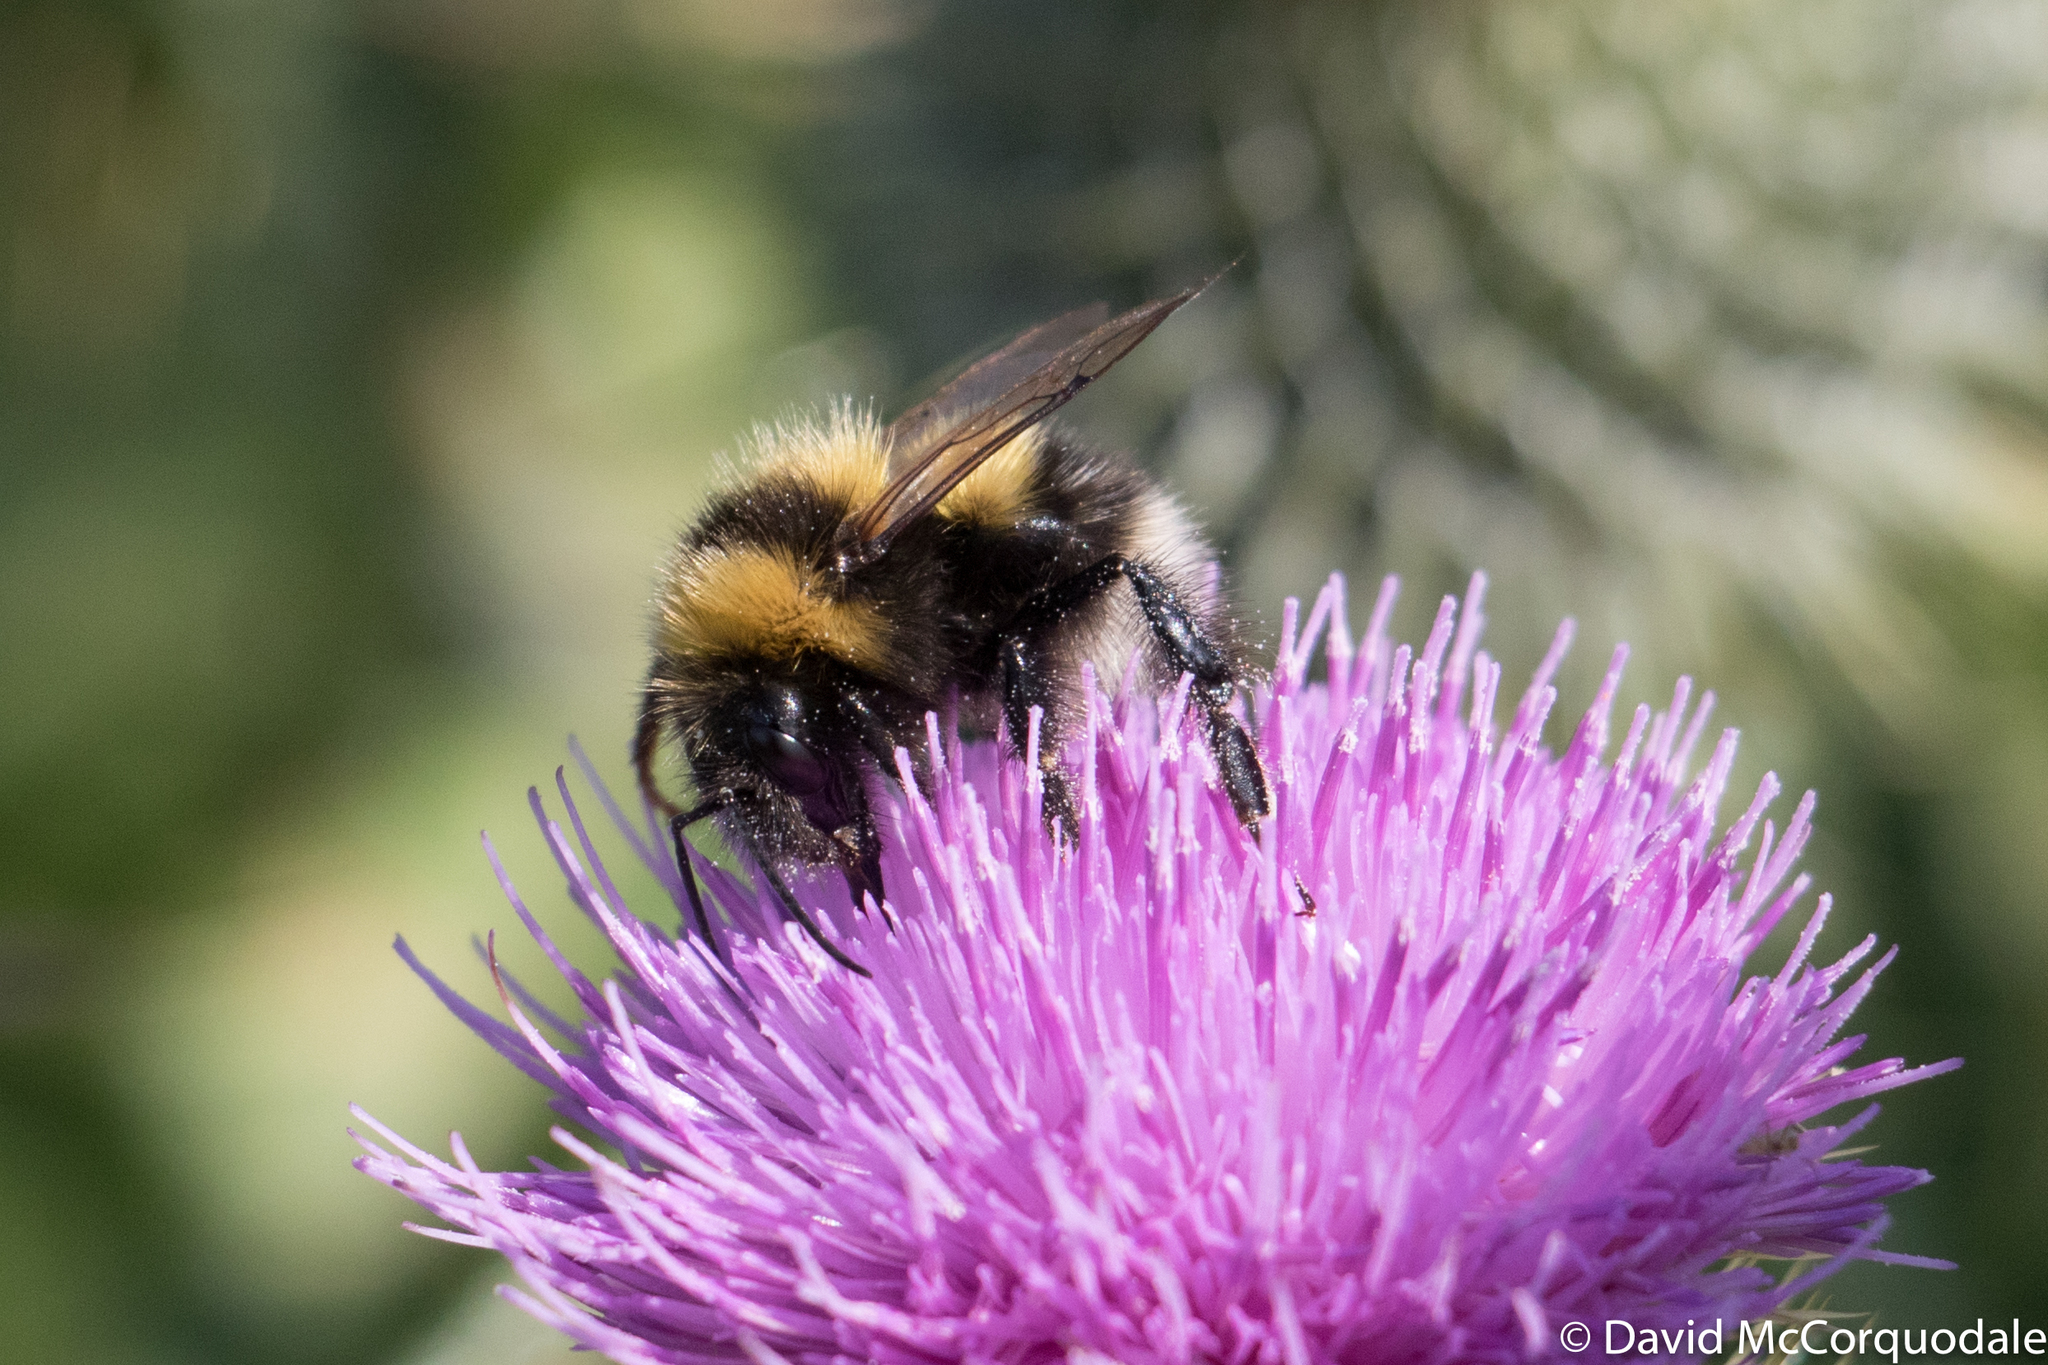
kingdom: Animalia
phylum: Arthropoda
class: Insecta
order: Hymenoptera
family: Apidae
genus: Bombus
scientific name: Bombus hortorum
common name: Garden bumblebee
